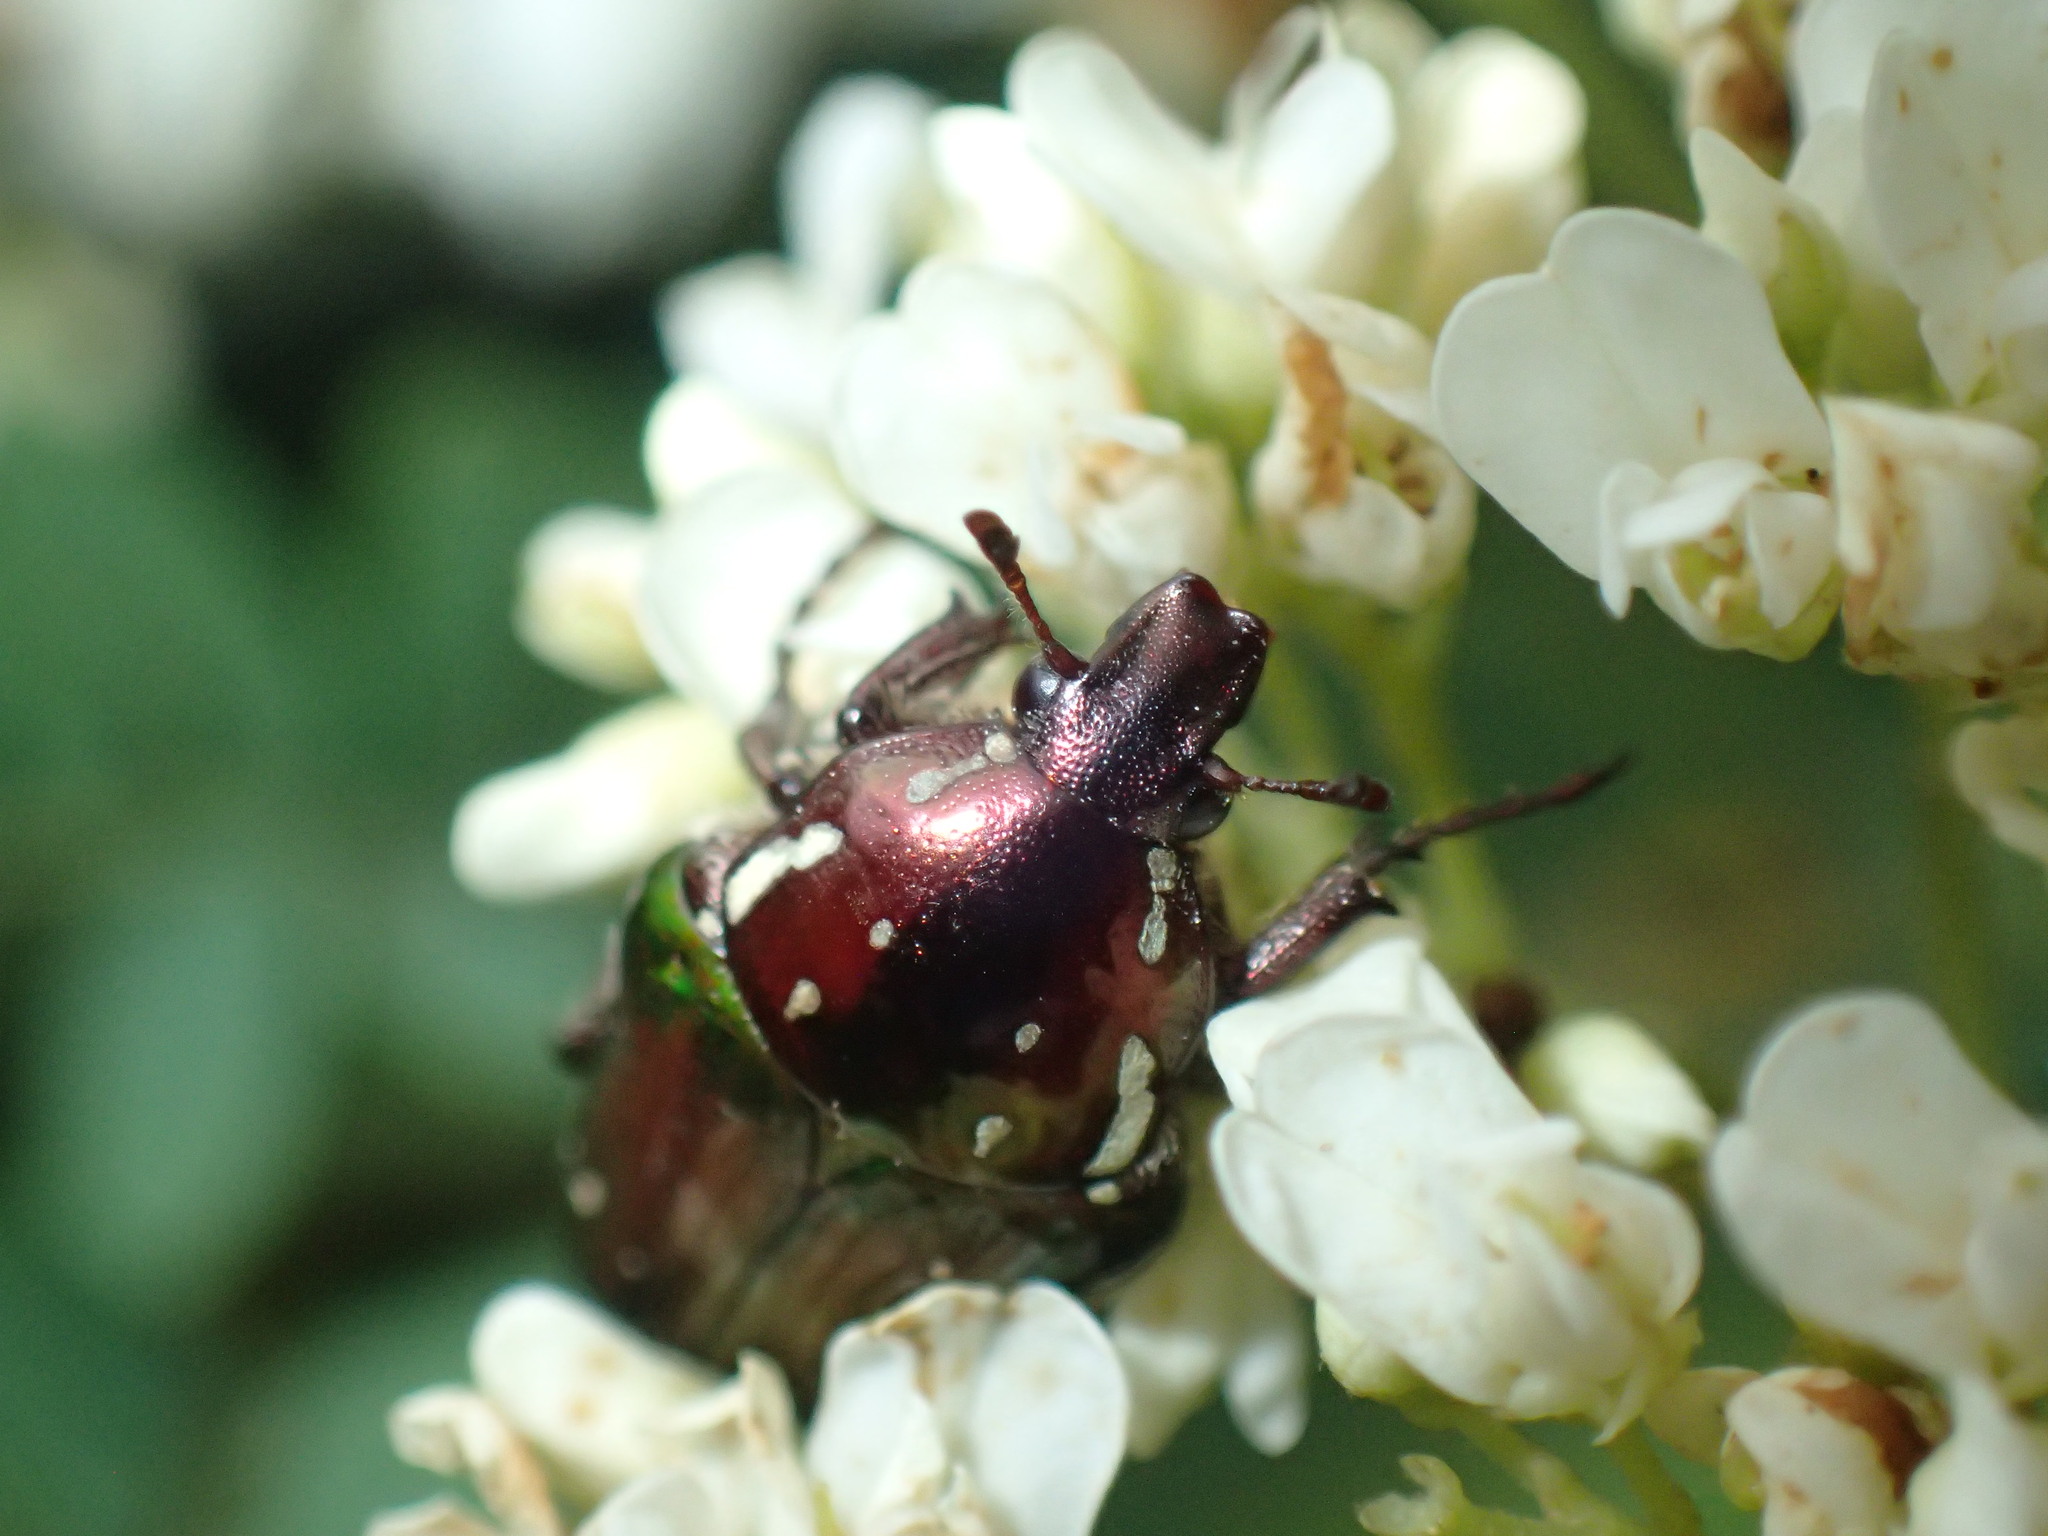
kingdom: Animalia
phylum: Arthropoda
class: Insecta
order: Coleoptera
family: Scarabaeidae
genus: Leucocelis
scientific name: Leucocelis aeneicollis
